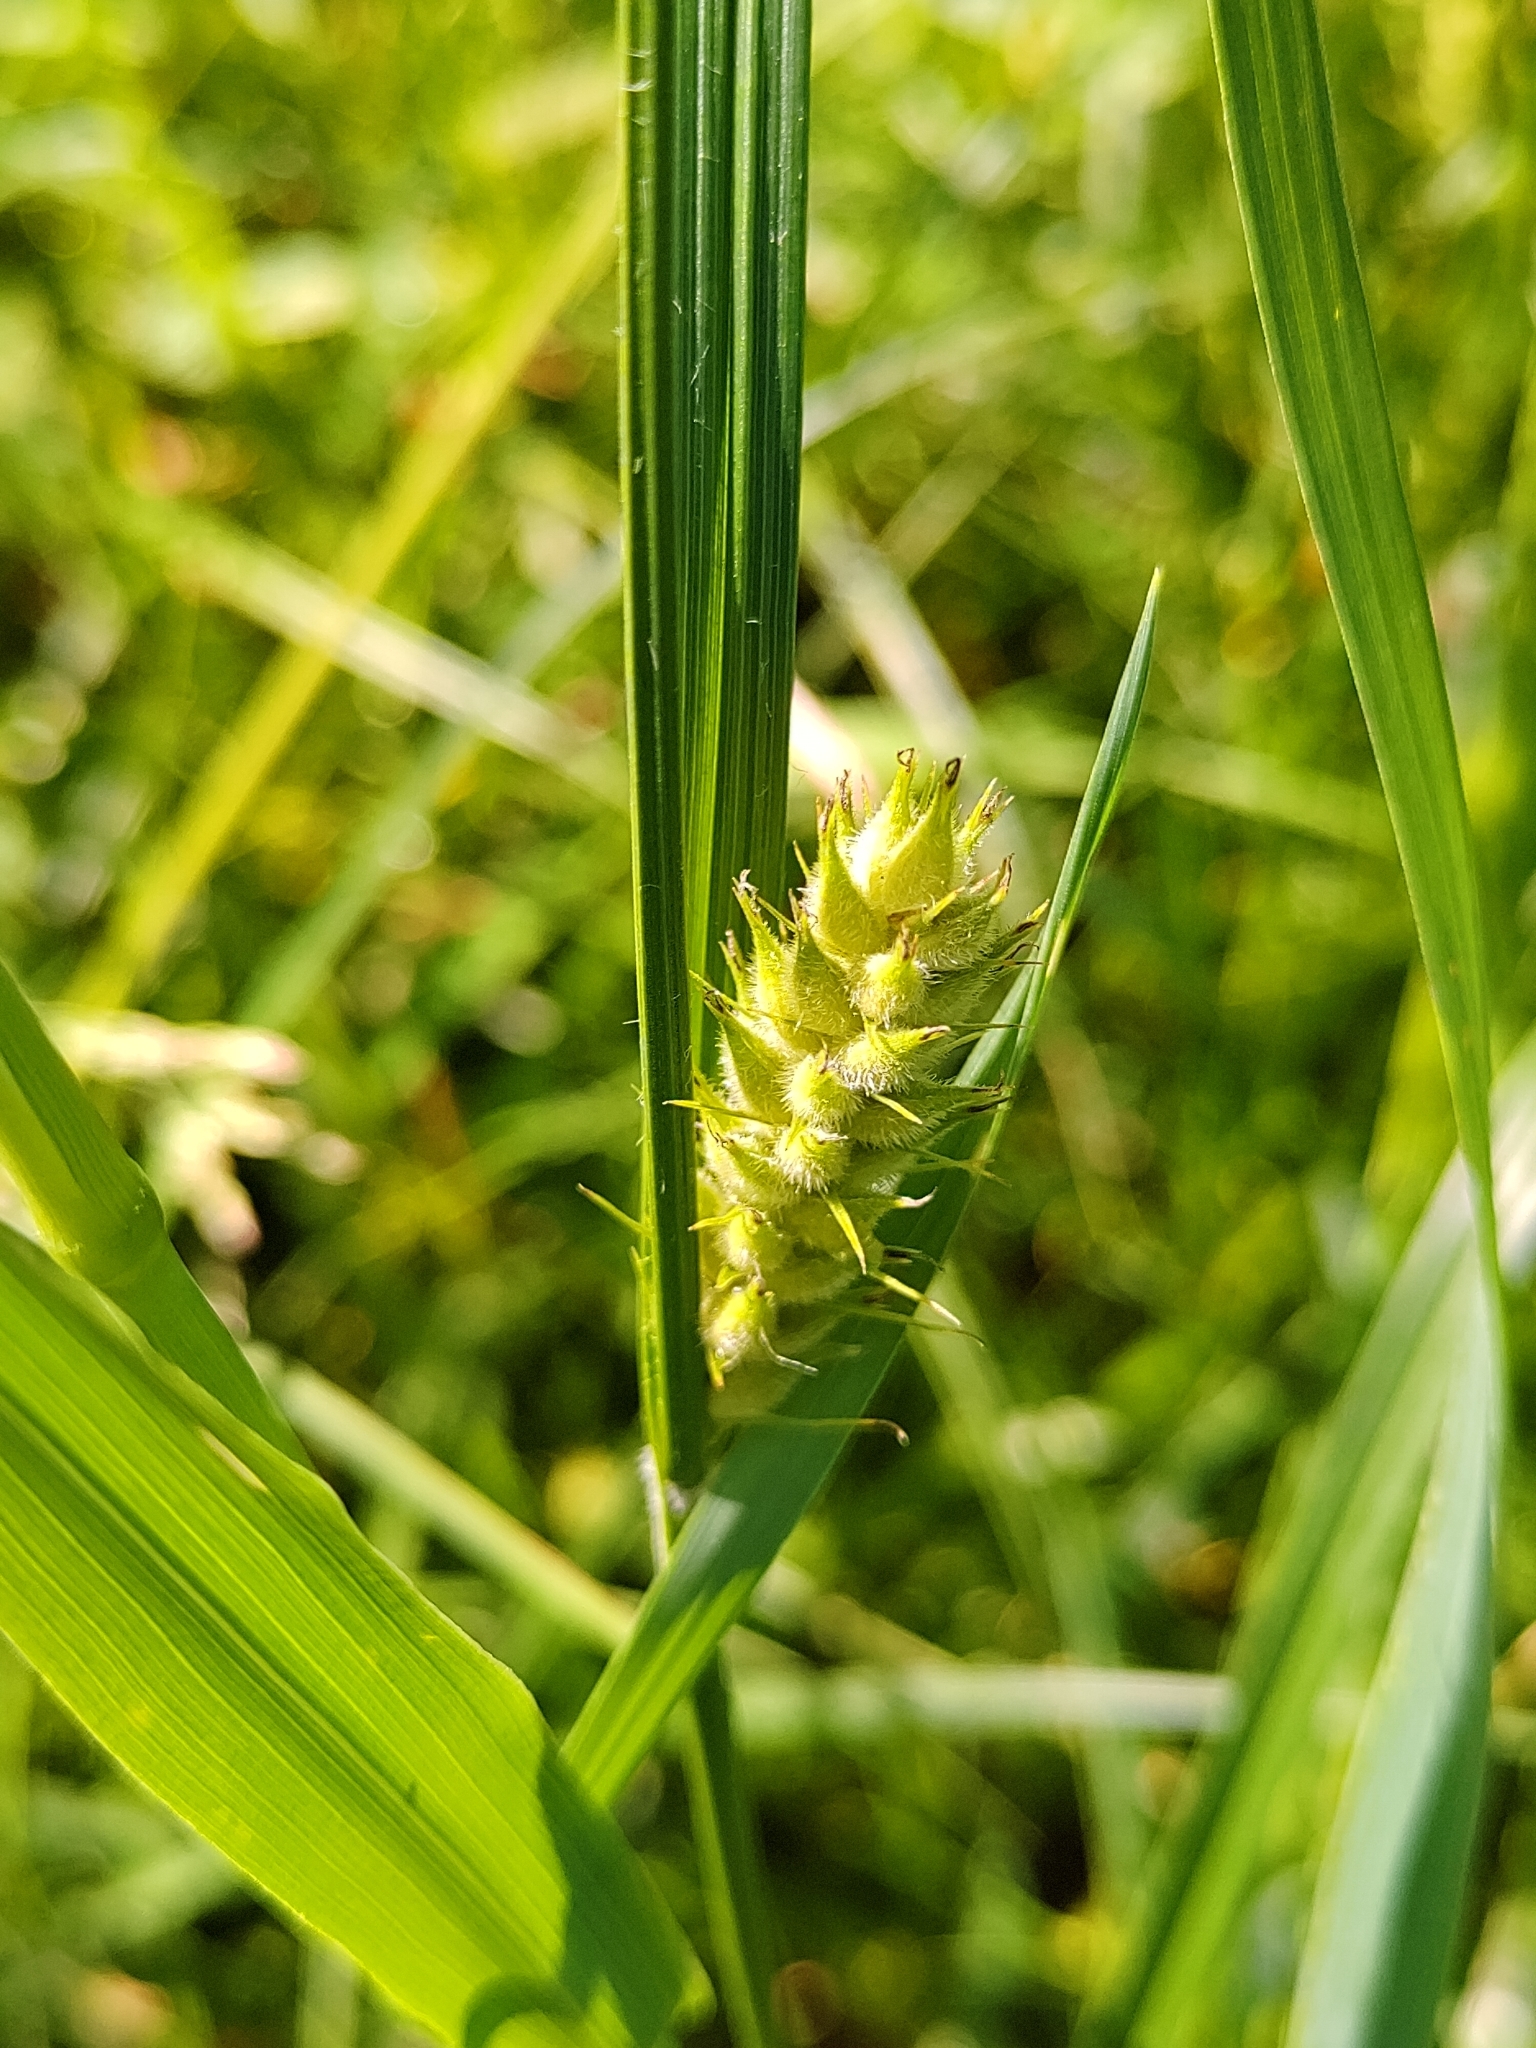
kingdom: Plantae
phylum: Tracheophyta
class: Liliopsida
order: Poales
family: Cyperaceae
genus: Carex
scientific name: Carex hirta
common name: Hairy sedge
